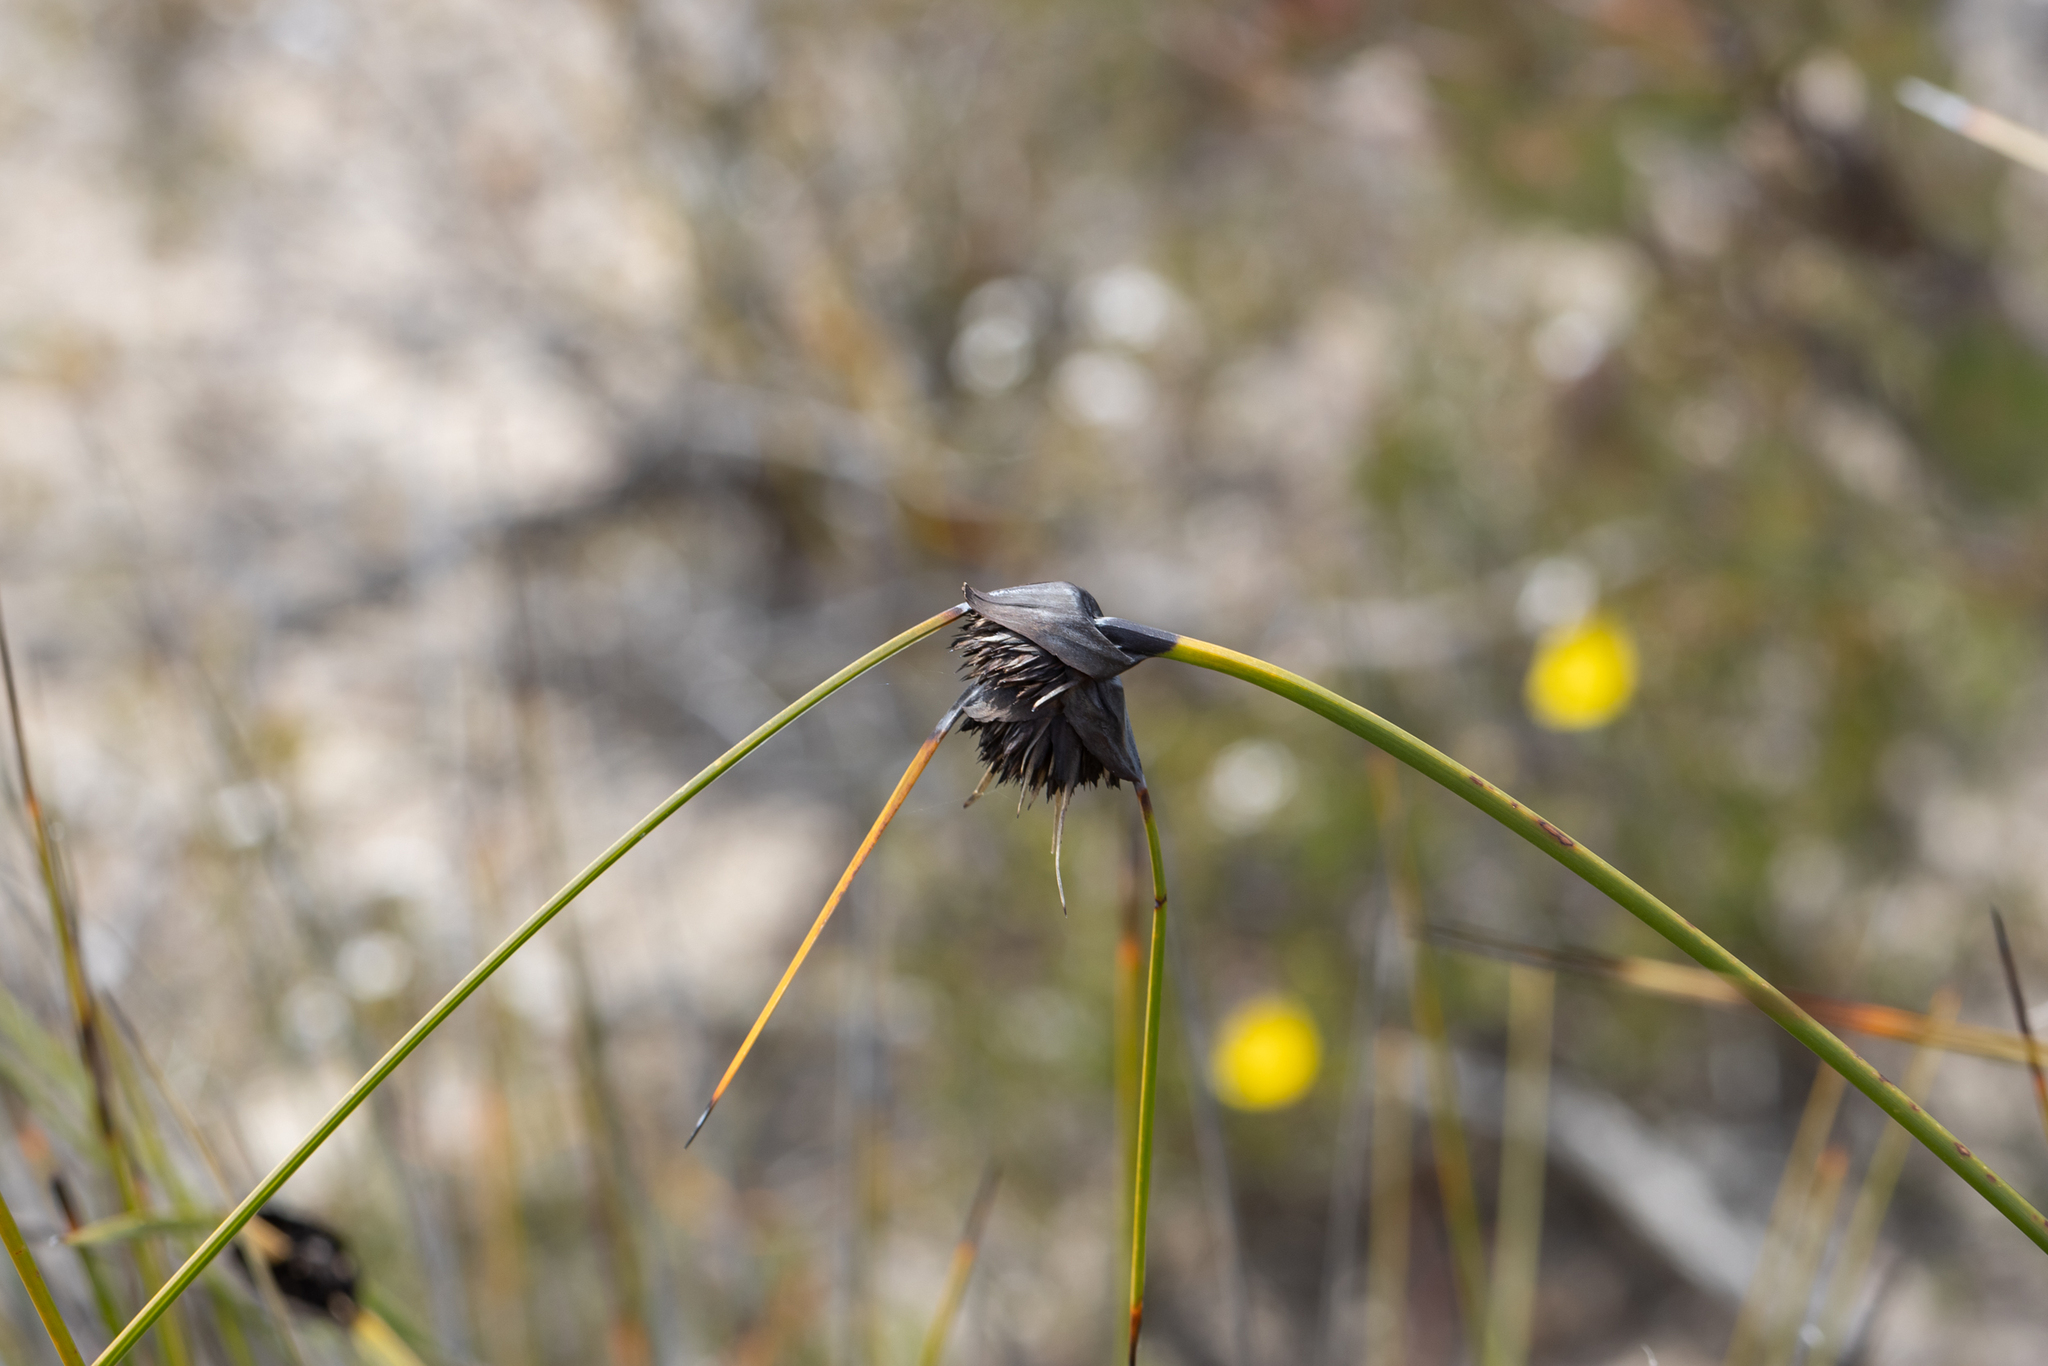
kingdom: Plantae
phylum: Tracheophyta
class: Liliopsida
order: Poales
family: Cyperaceae
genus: Mesomelaena
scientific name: Mesomelaena tetragona
